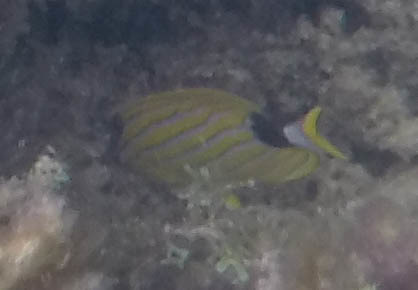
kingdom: Animalia
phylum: Chordata
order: Perciformes
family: Chaetodontidae
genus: Chaetodon
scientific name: Chaetodon fremblii
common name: Bluestriped butterflyfish
